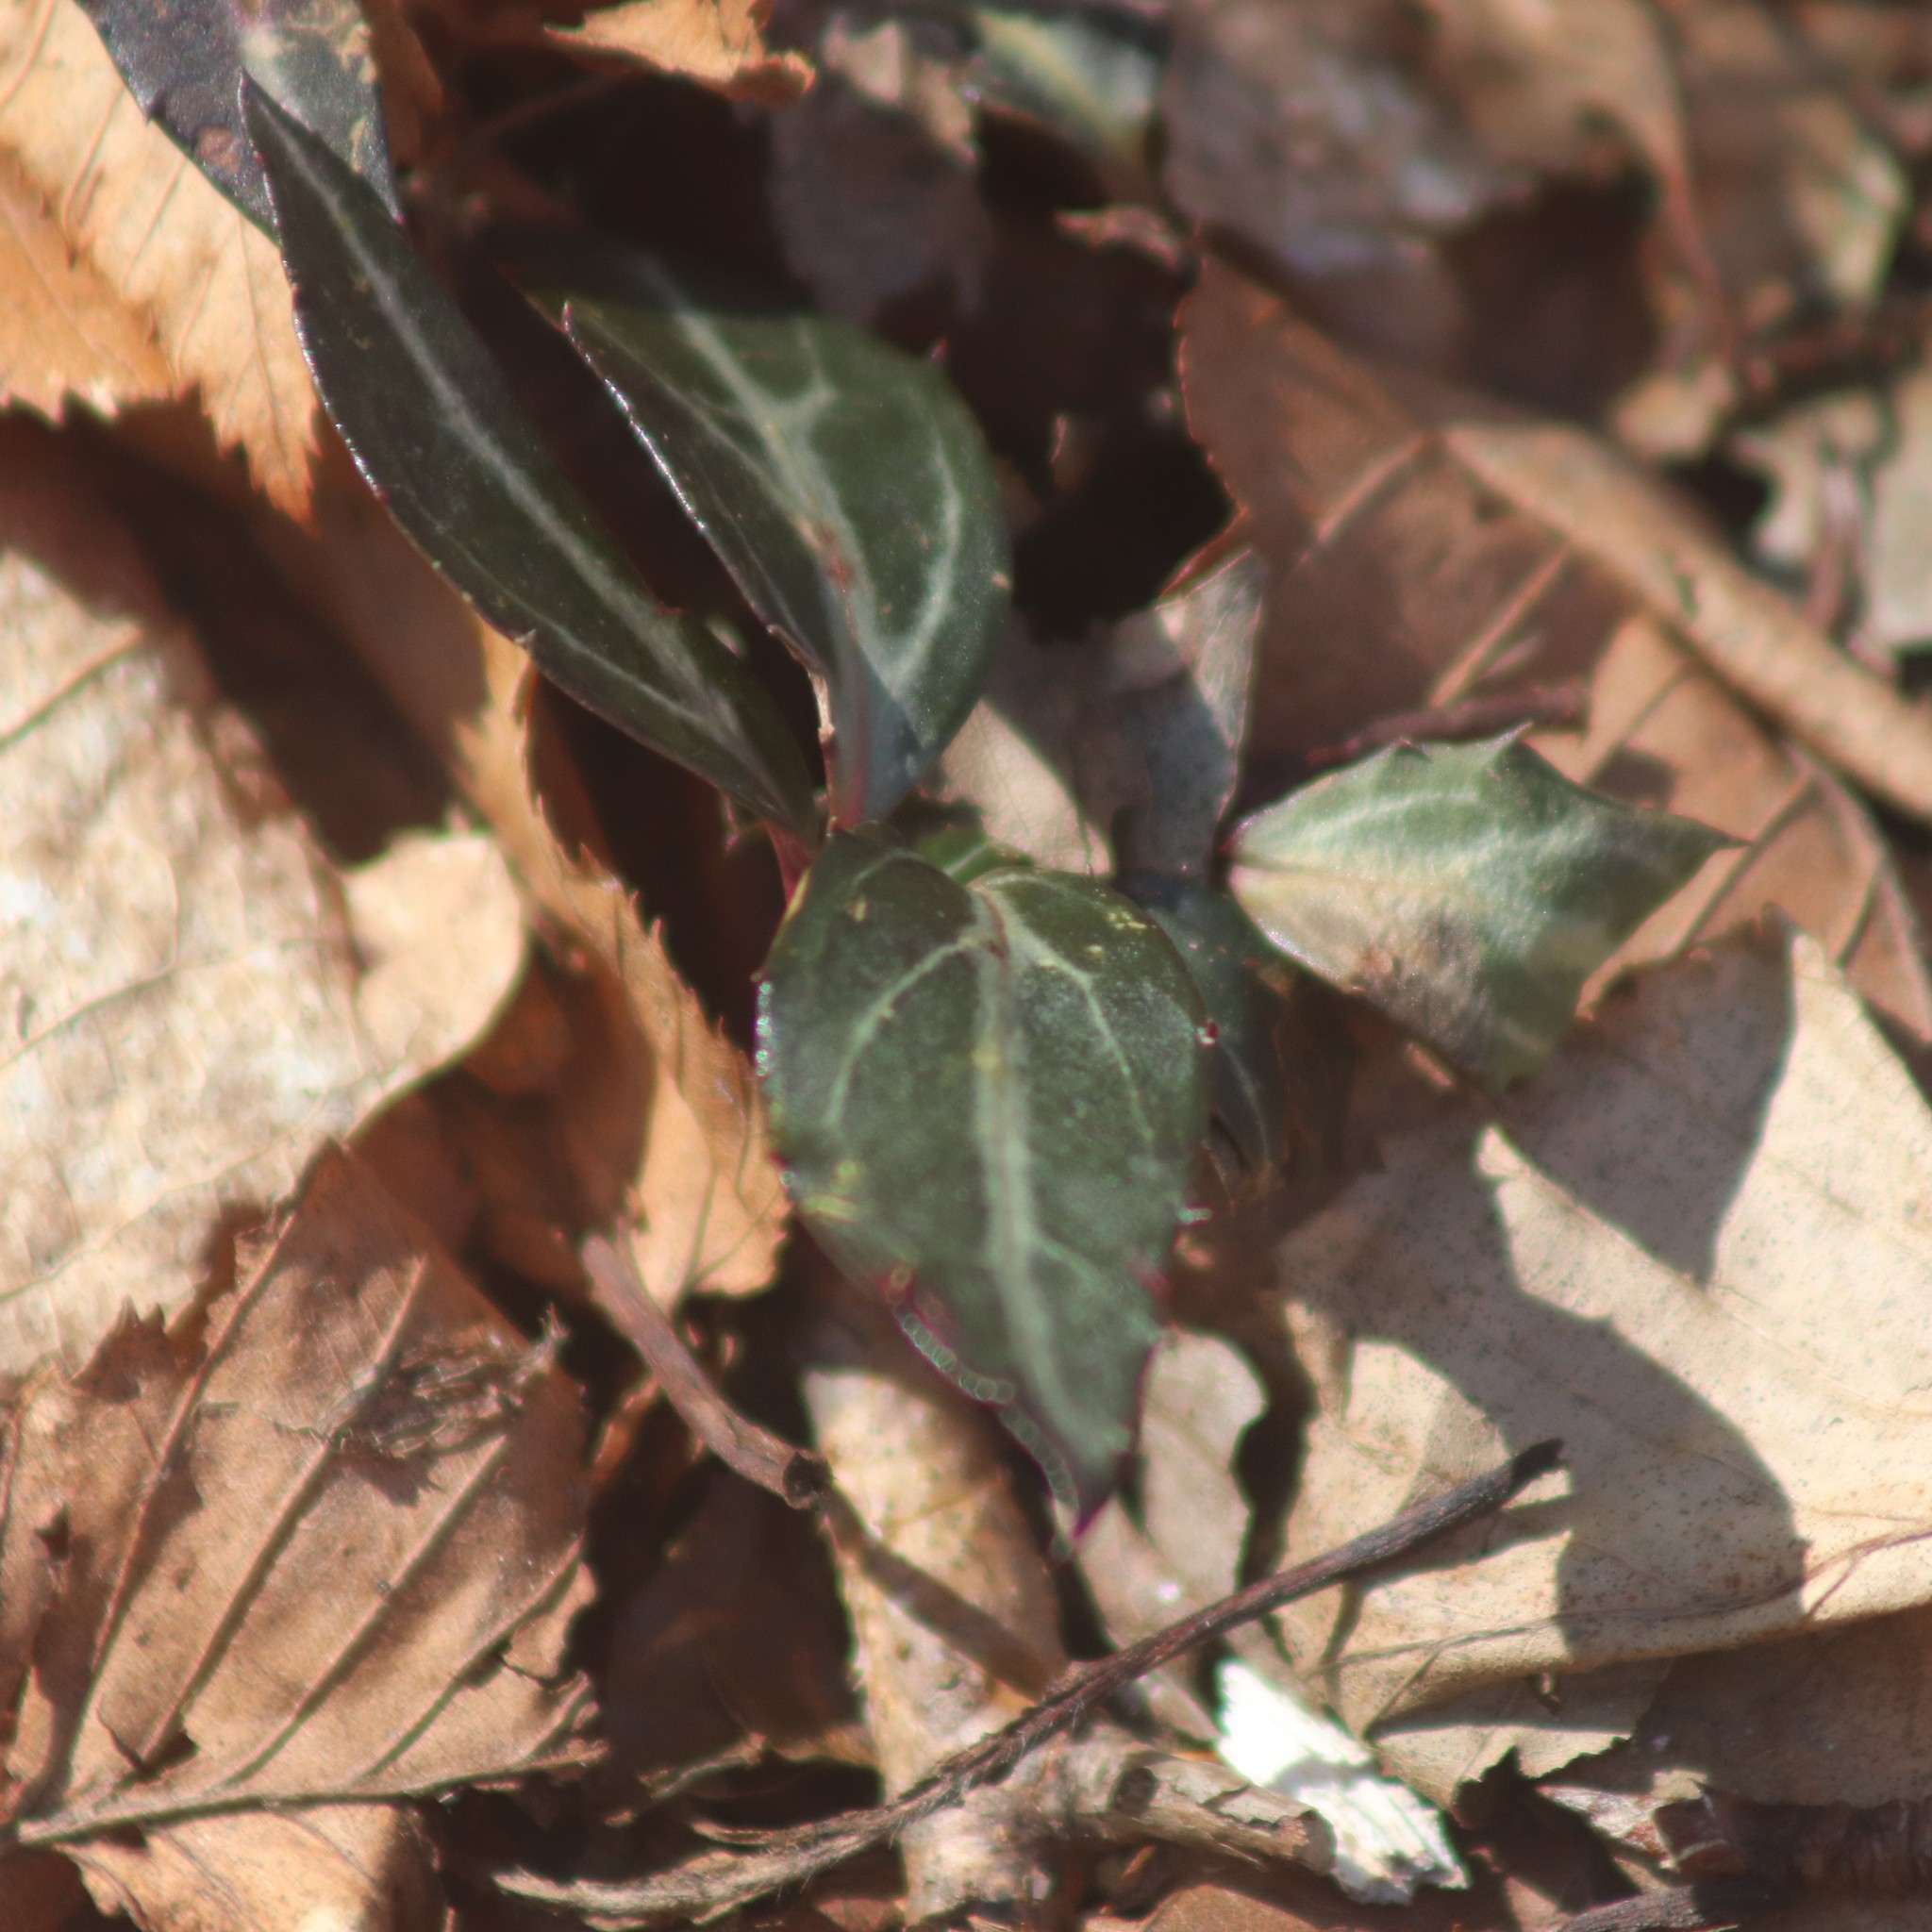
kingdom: Plantae
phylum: Tracheophyta
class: Magnoliopsida
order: Ericales
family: Ericaceae
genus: Chimaphila
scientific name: Chimaphila maculata
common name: Spotted pipsissewa
